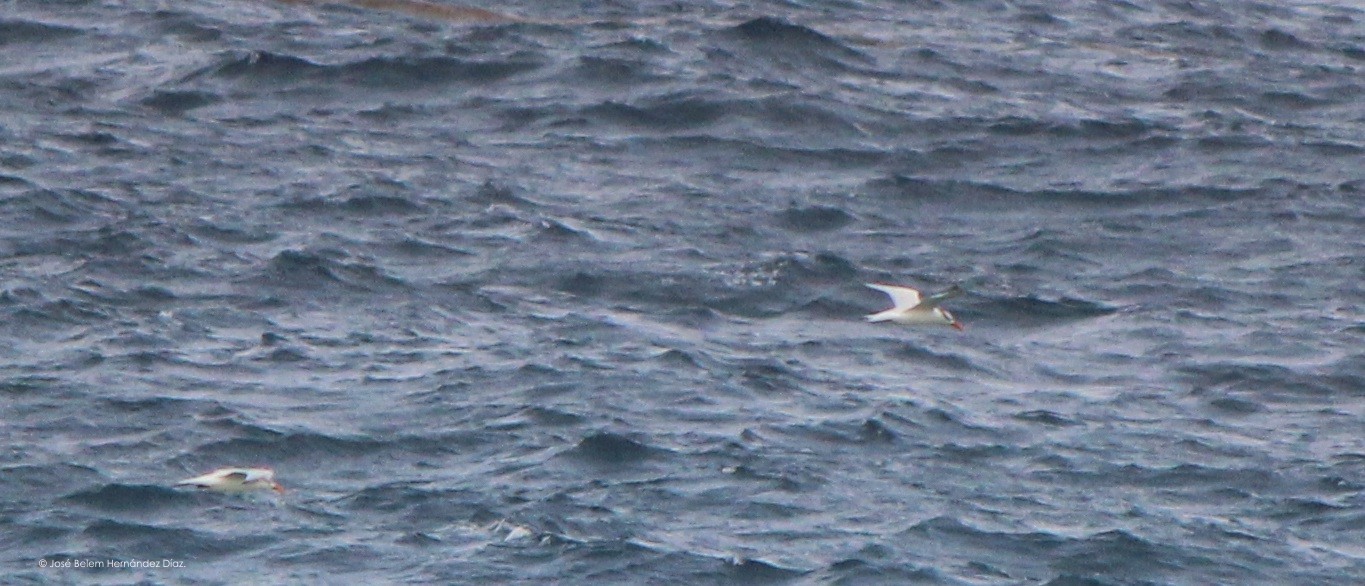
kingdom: Animalia
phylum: Chordata
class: Aves
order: Charadriiformes
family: Laridae
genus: Thalasseus
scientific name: Thalasseus maximus
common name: Royal tern
